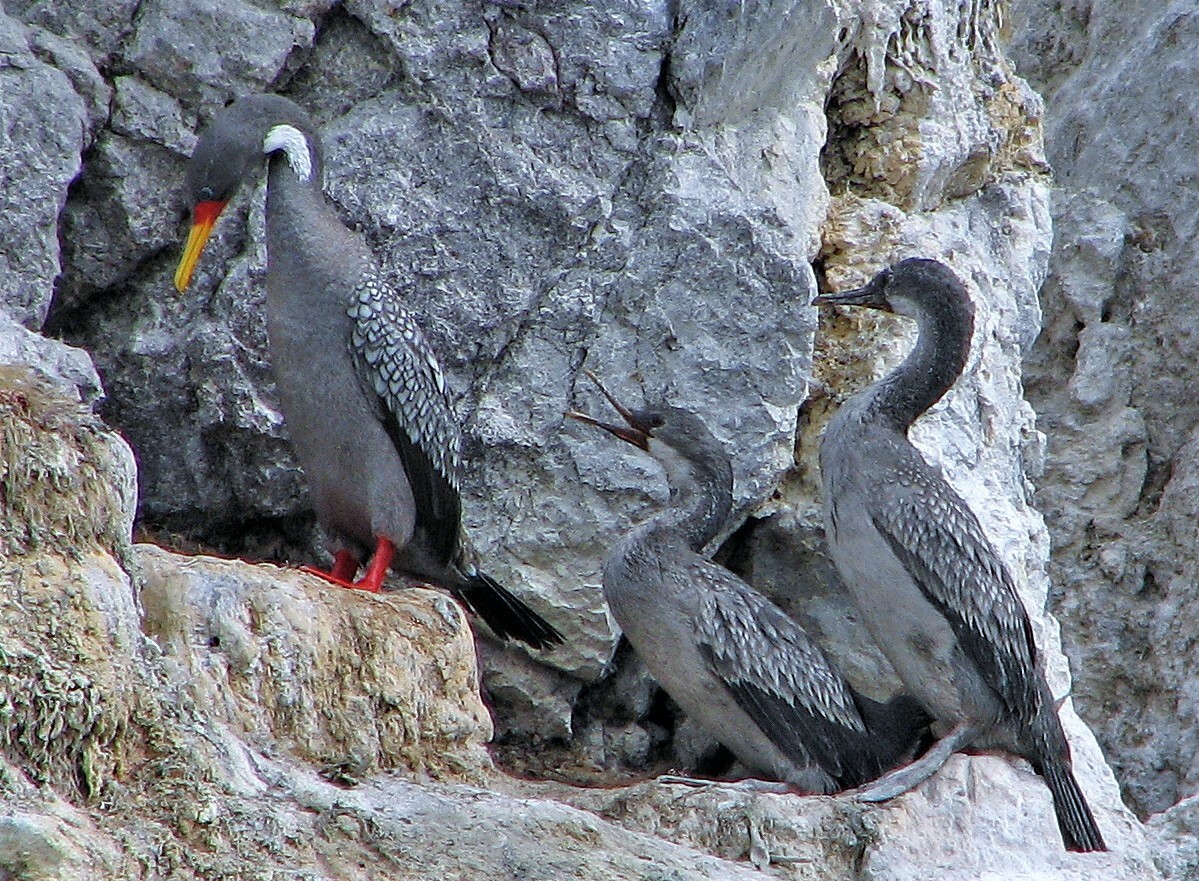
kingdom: Animalia
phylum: Chordata
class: Aves
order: Suliformes
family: Phalacrocoracidae
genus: Phalacrocorax
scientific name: Phalacrocorax gaimardi
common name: Red-legged cormorant
